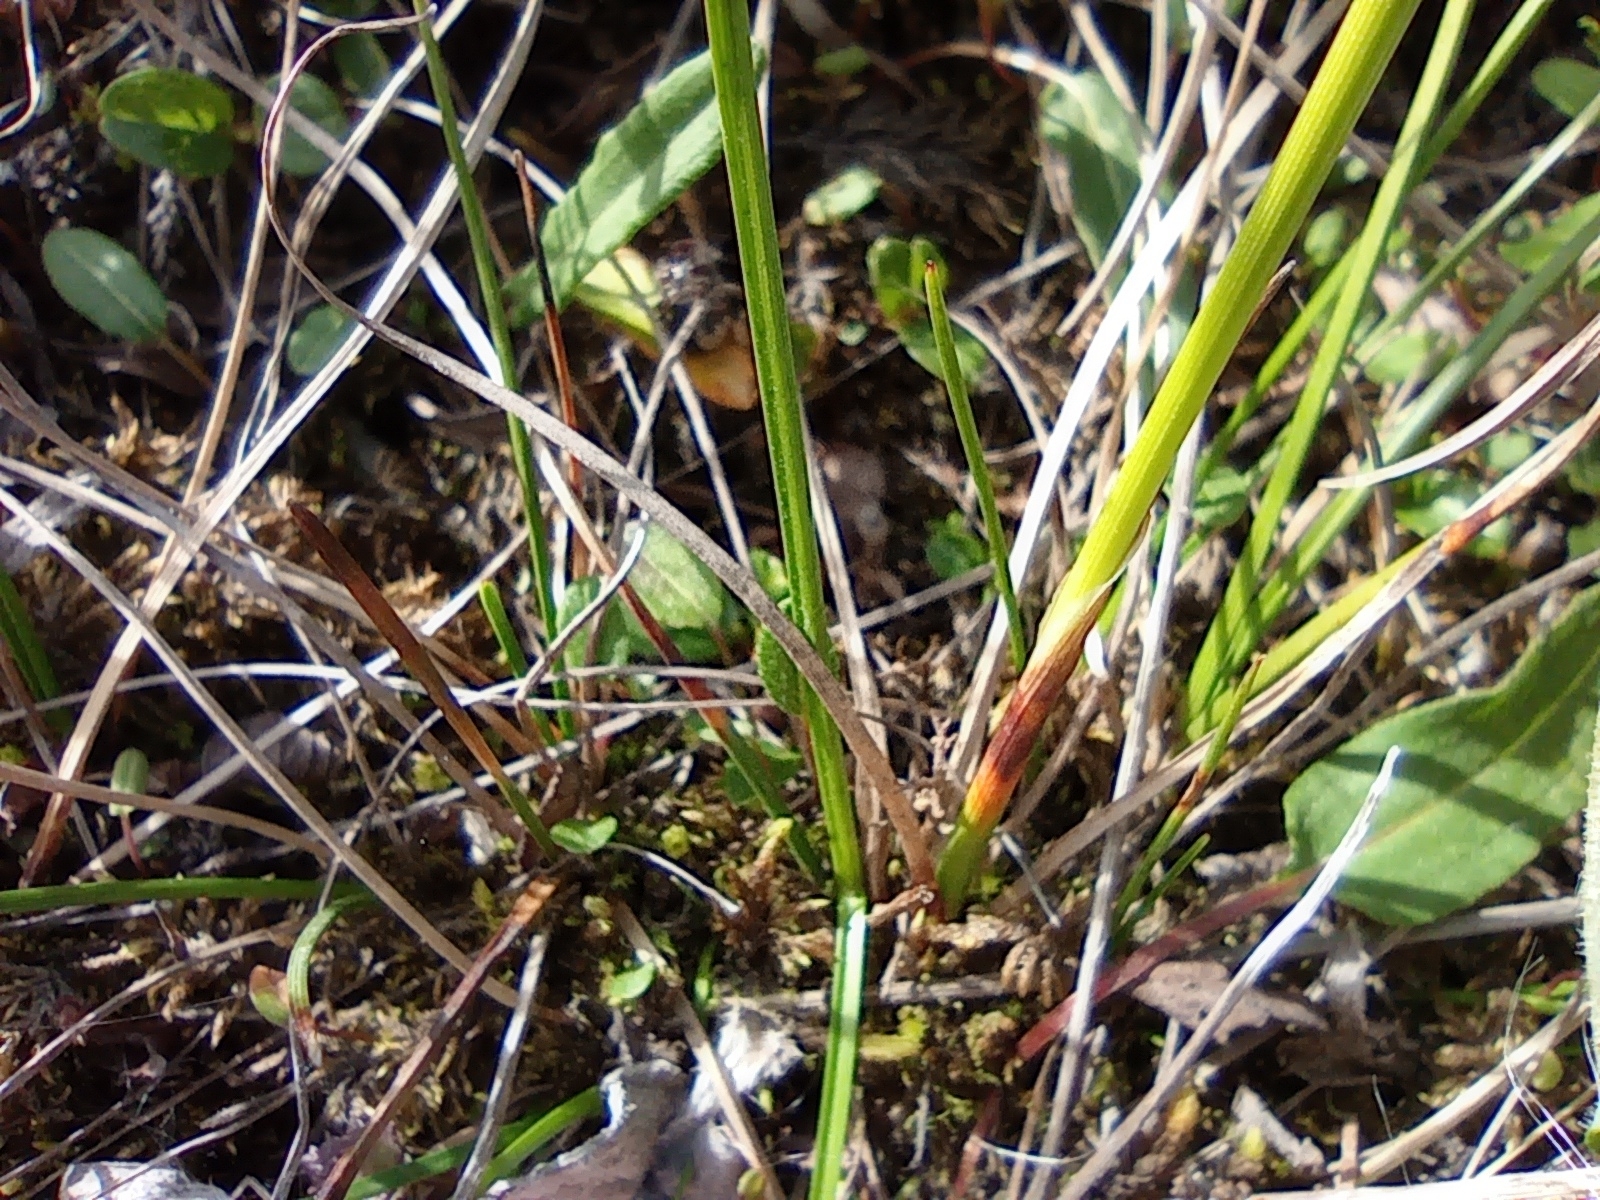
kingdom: Plantae
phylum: Tracheophyta
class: Liliopsida
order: Poales
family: Cyperaceae
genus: Eriophorum
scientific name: Eriophorum vaginatum
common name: Hare's-tail cottongrass
